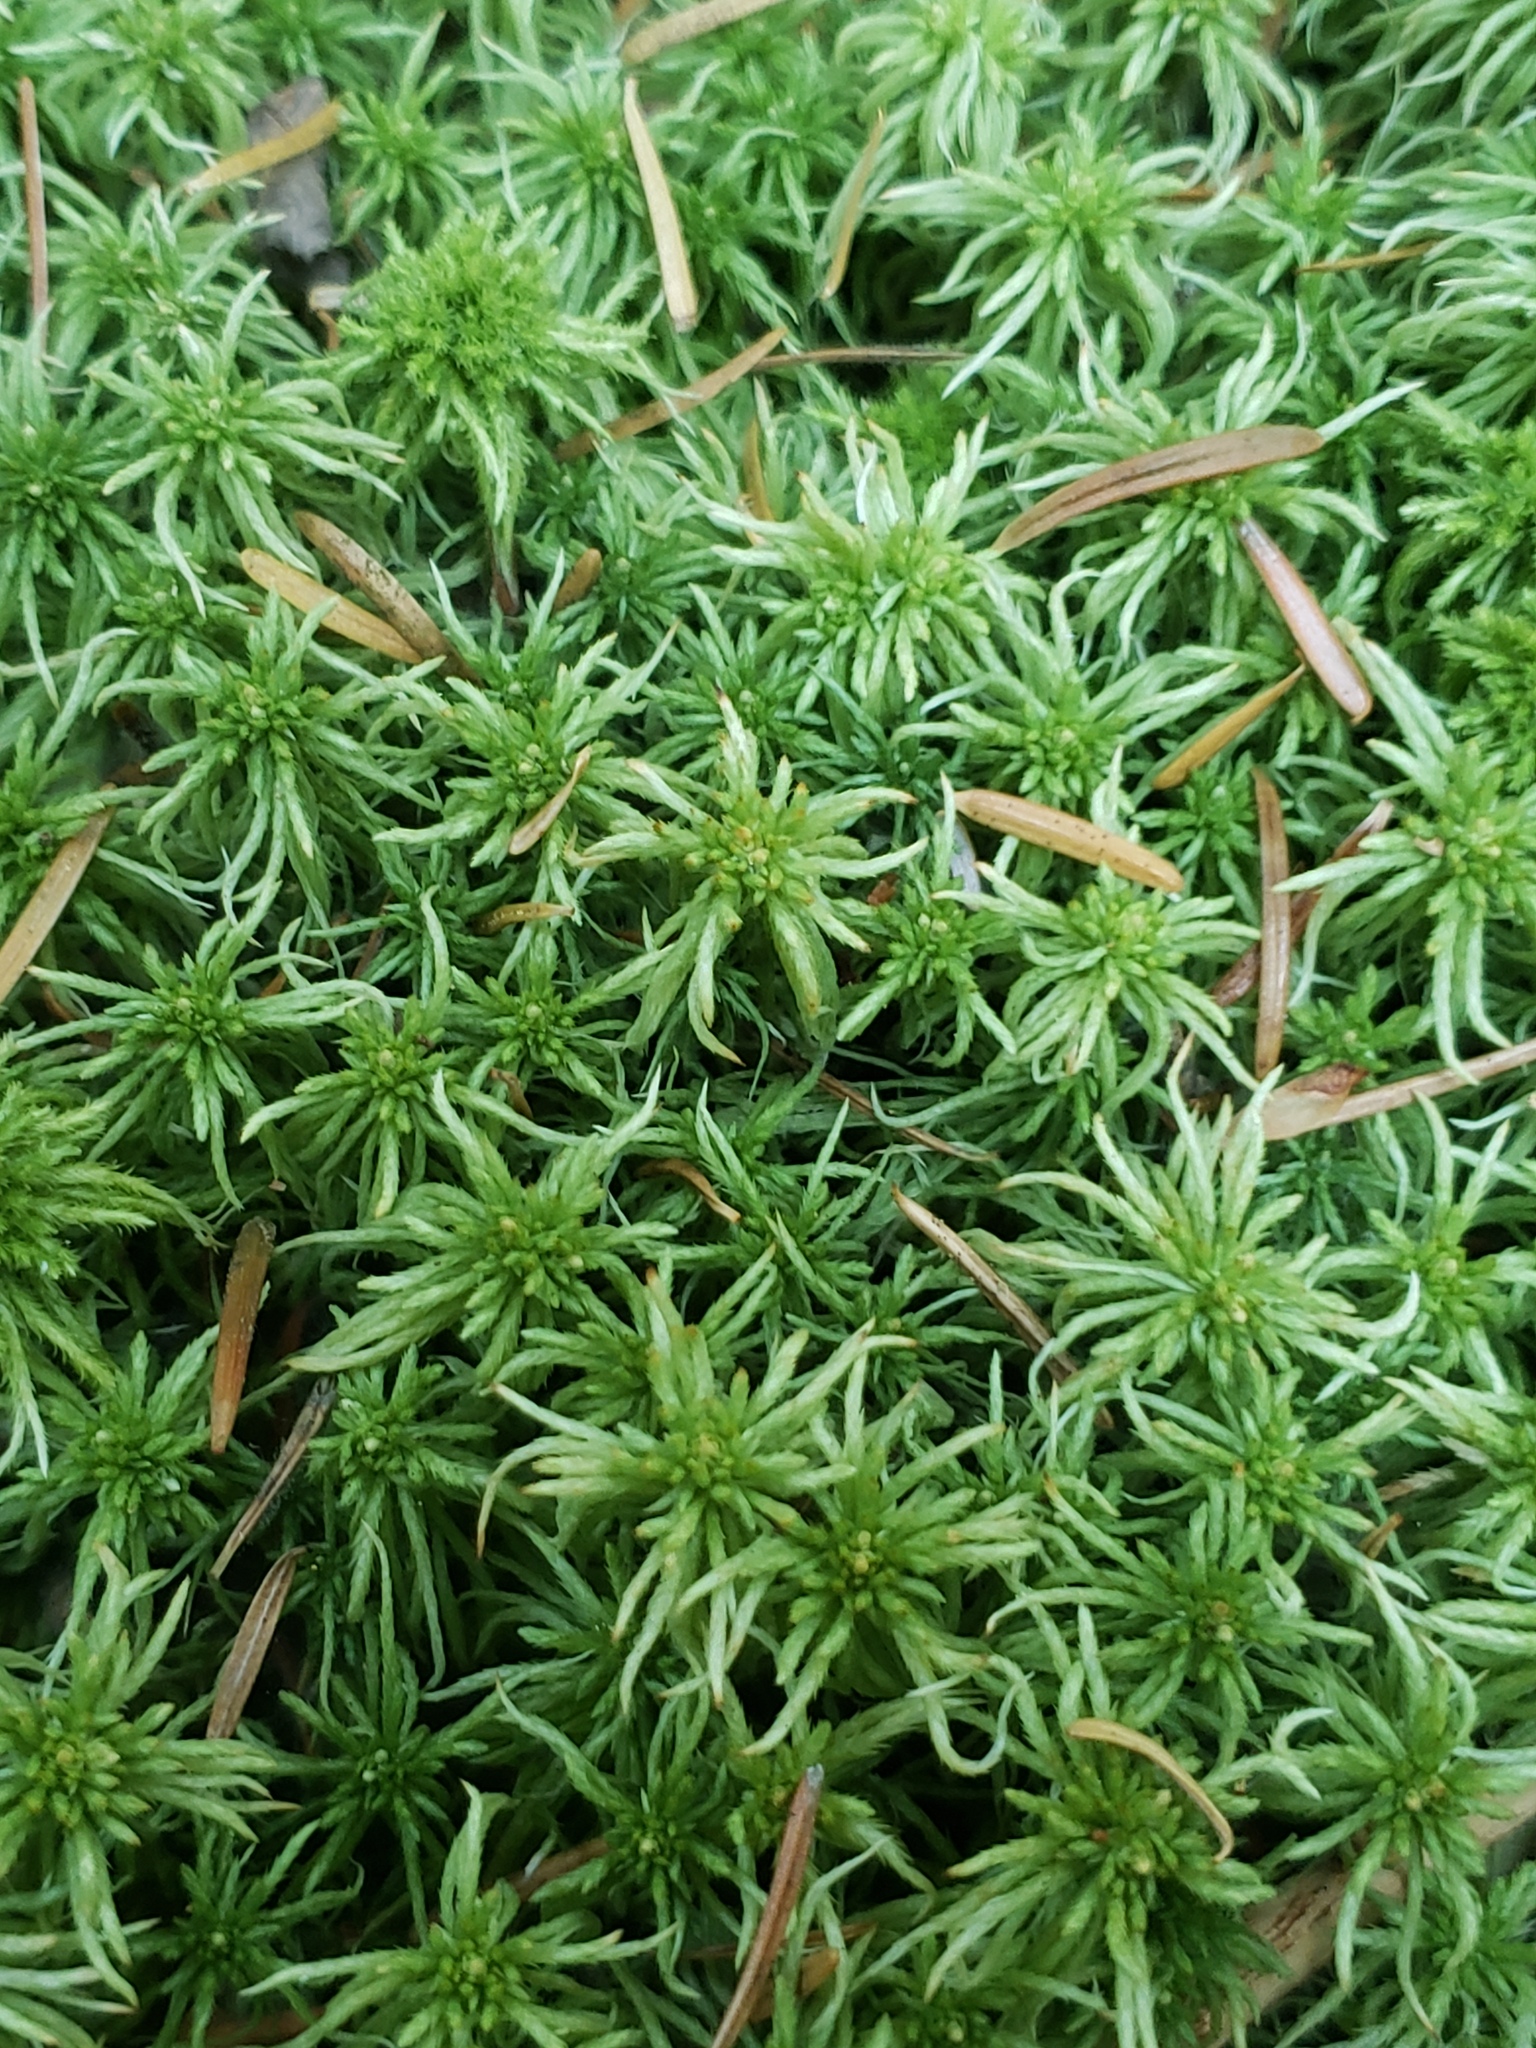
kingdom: Plantae
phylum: Bryophyta
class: Sphagnopsida
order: Sphagnales
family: Sphagnaceae
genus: Sphagnum
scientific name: Sphagnum girgensohnii
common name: Girgensohn's peat moss
